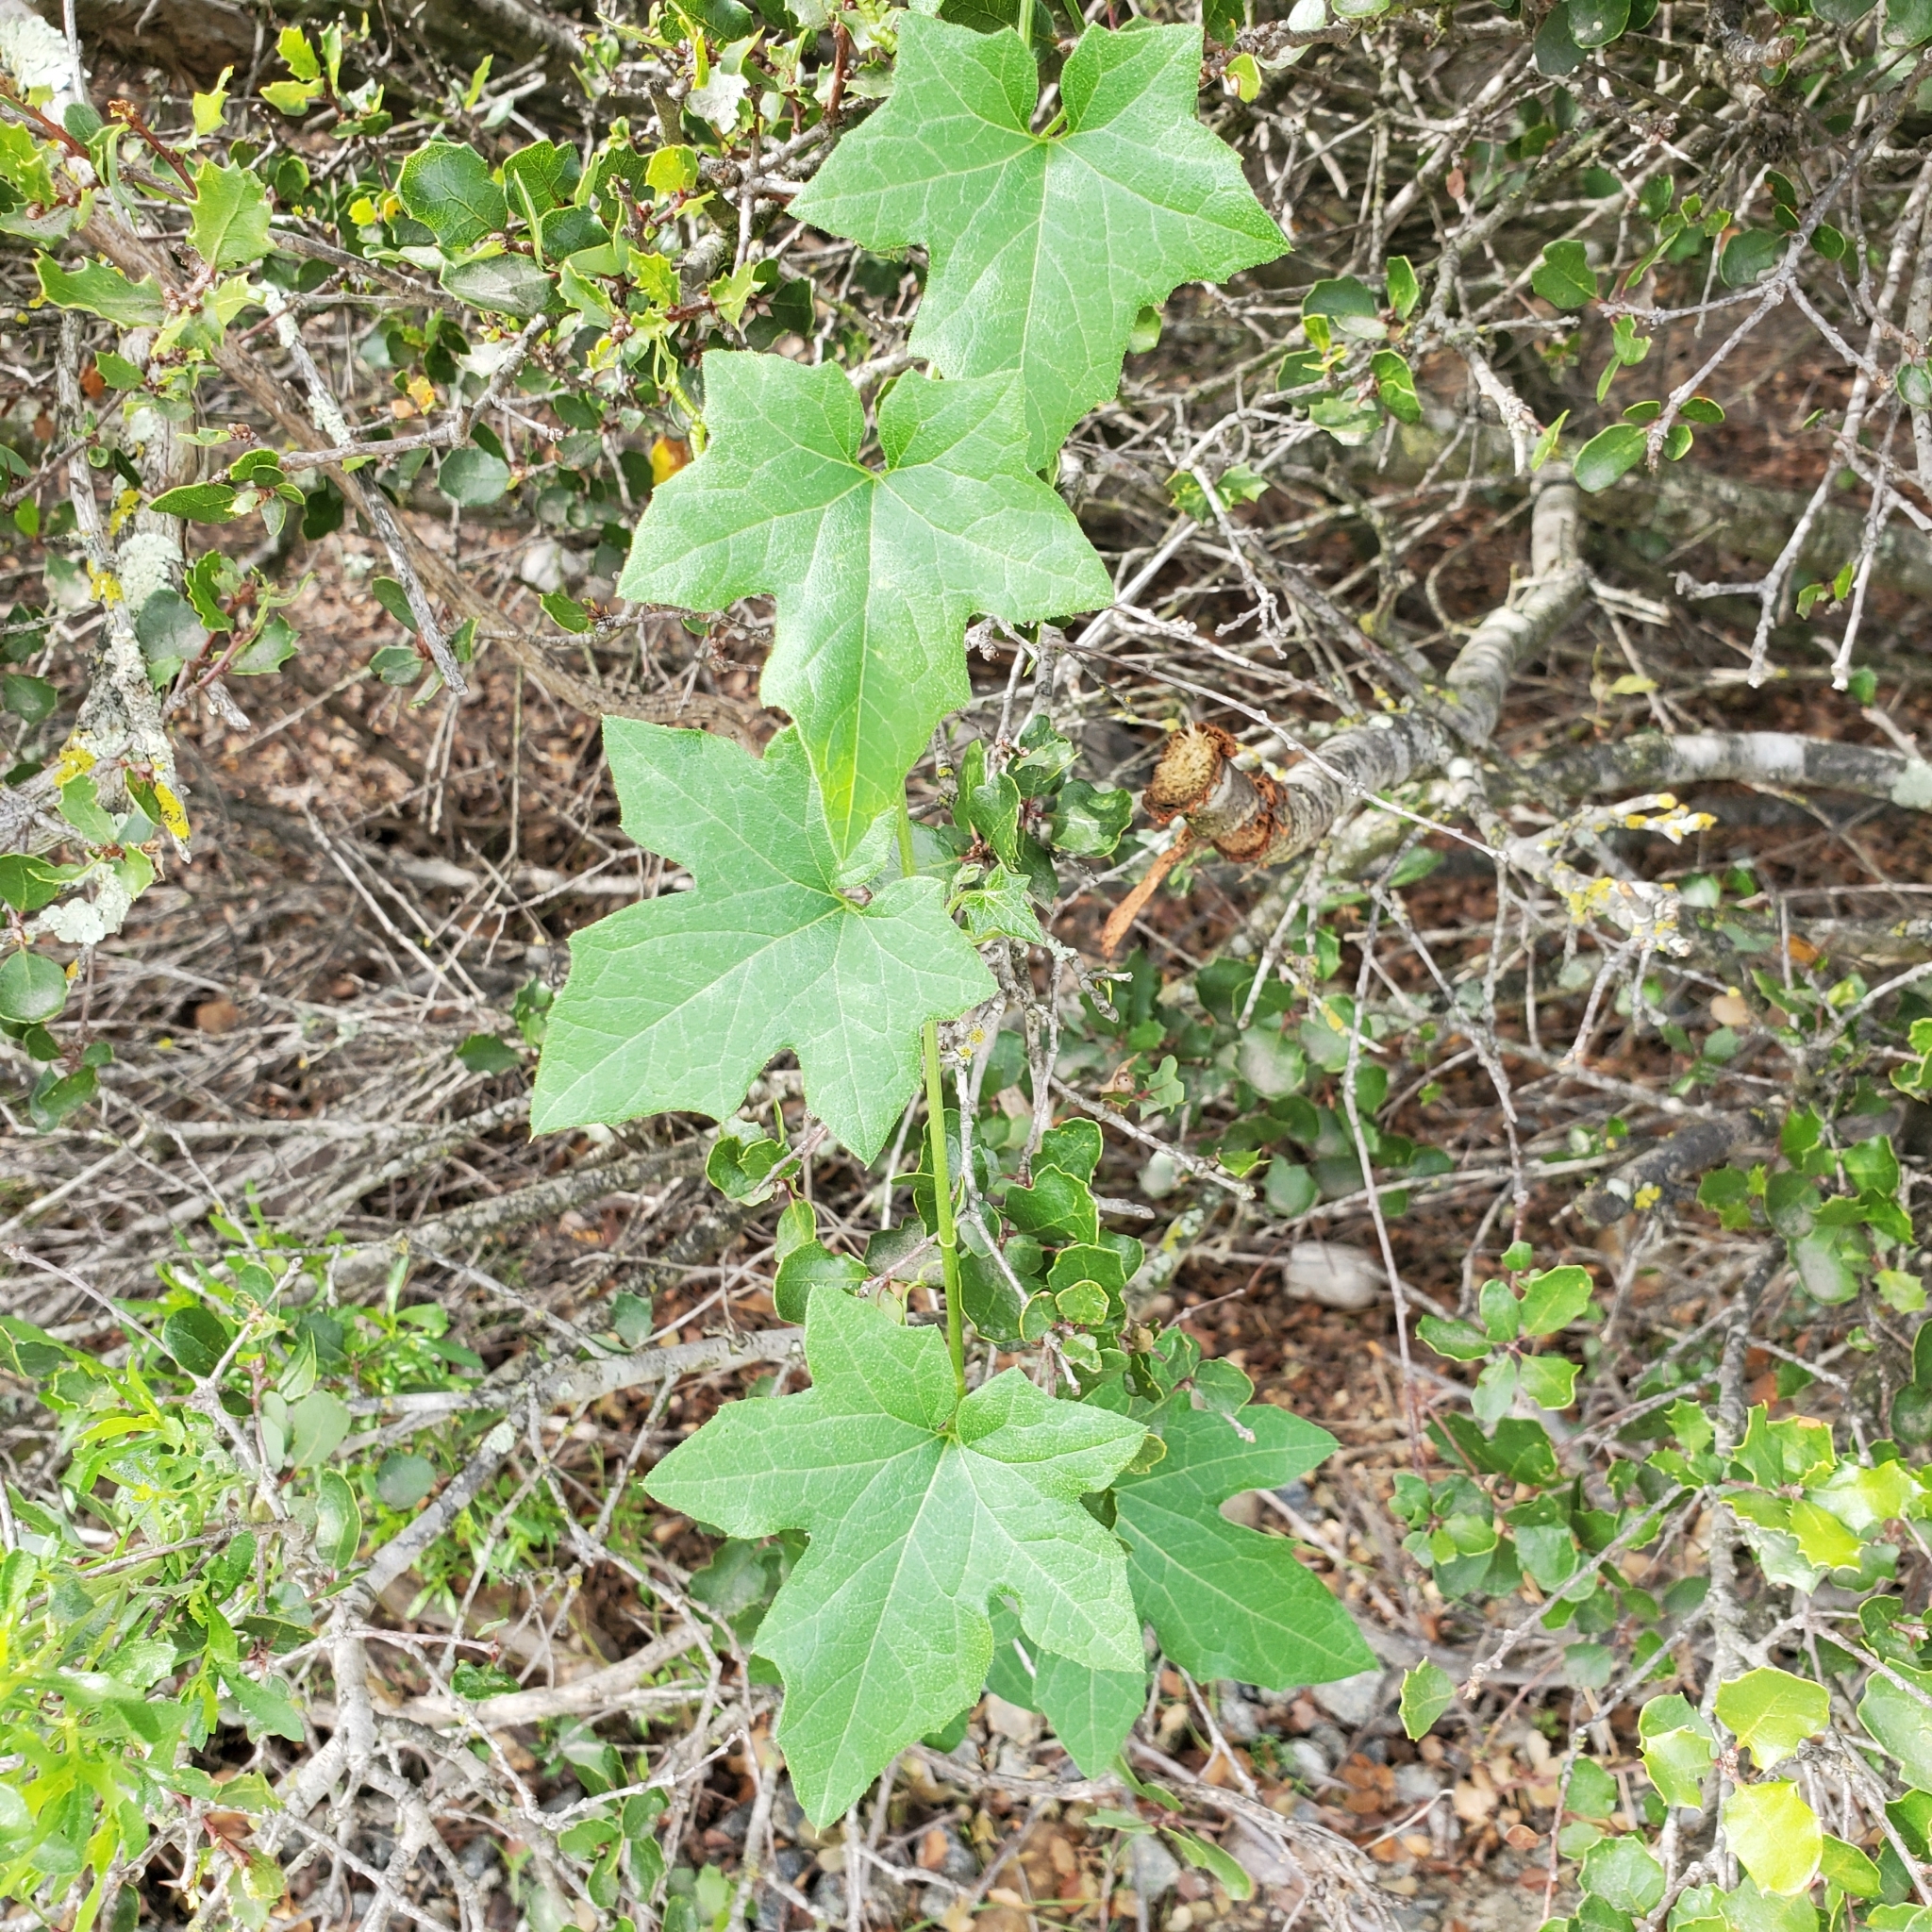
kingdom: Plantae
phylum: Tracheophyta
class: Magnoliopsida
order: Cucurbitales
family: Cucurbitaceae
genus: Marah
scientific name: Marah macrocarpa
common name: Cucamonga manroot
